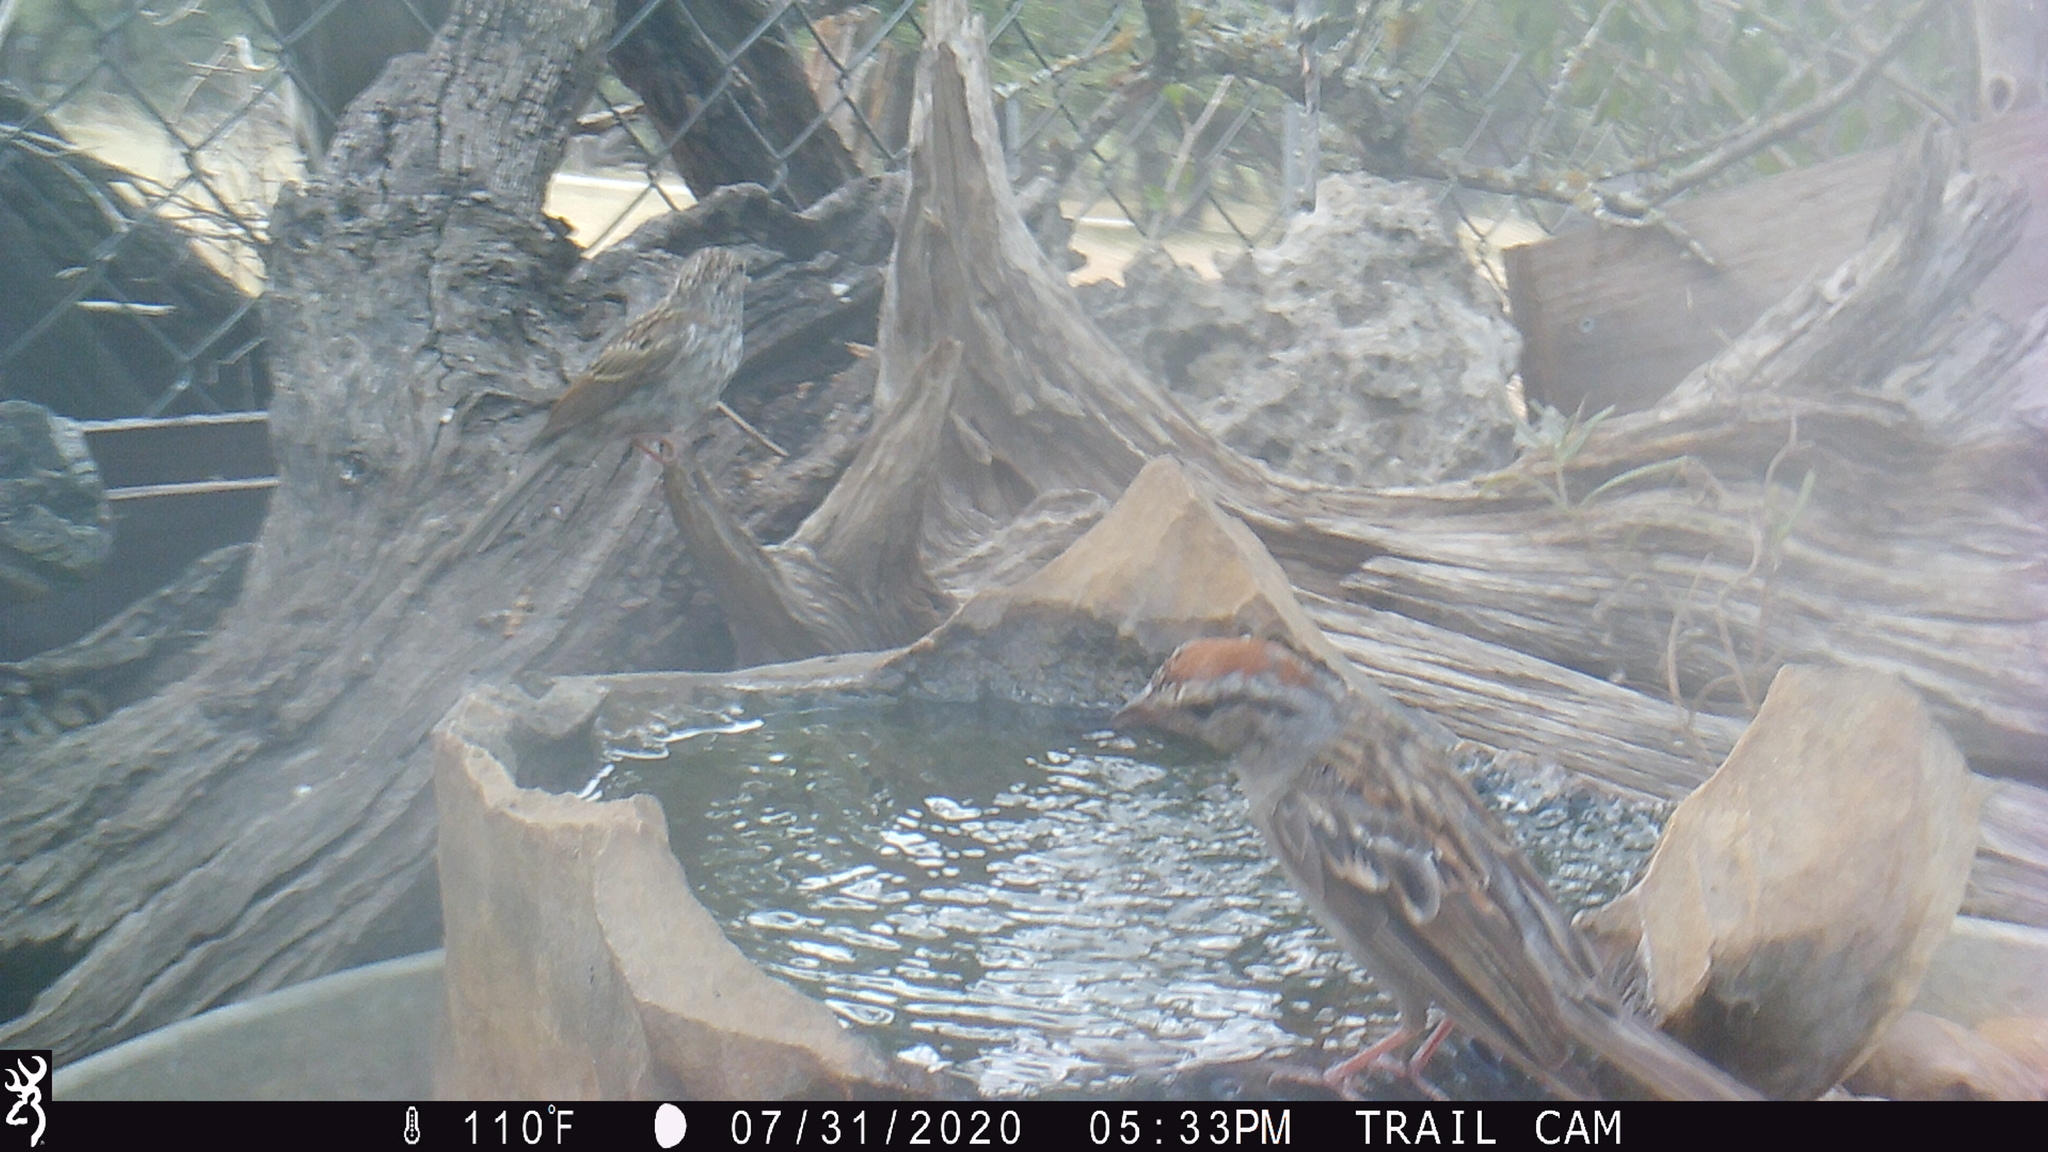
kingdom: Animalia
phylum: Chordata
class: Aves
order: Passeriformes
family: Passerellidae
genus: Spizella
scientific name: Spizella passerina
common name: Chipping sparrow
